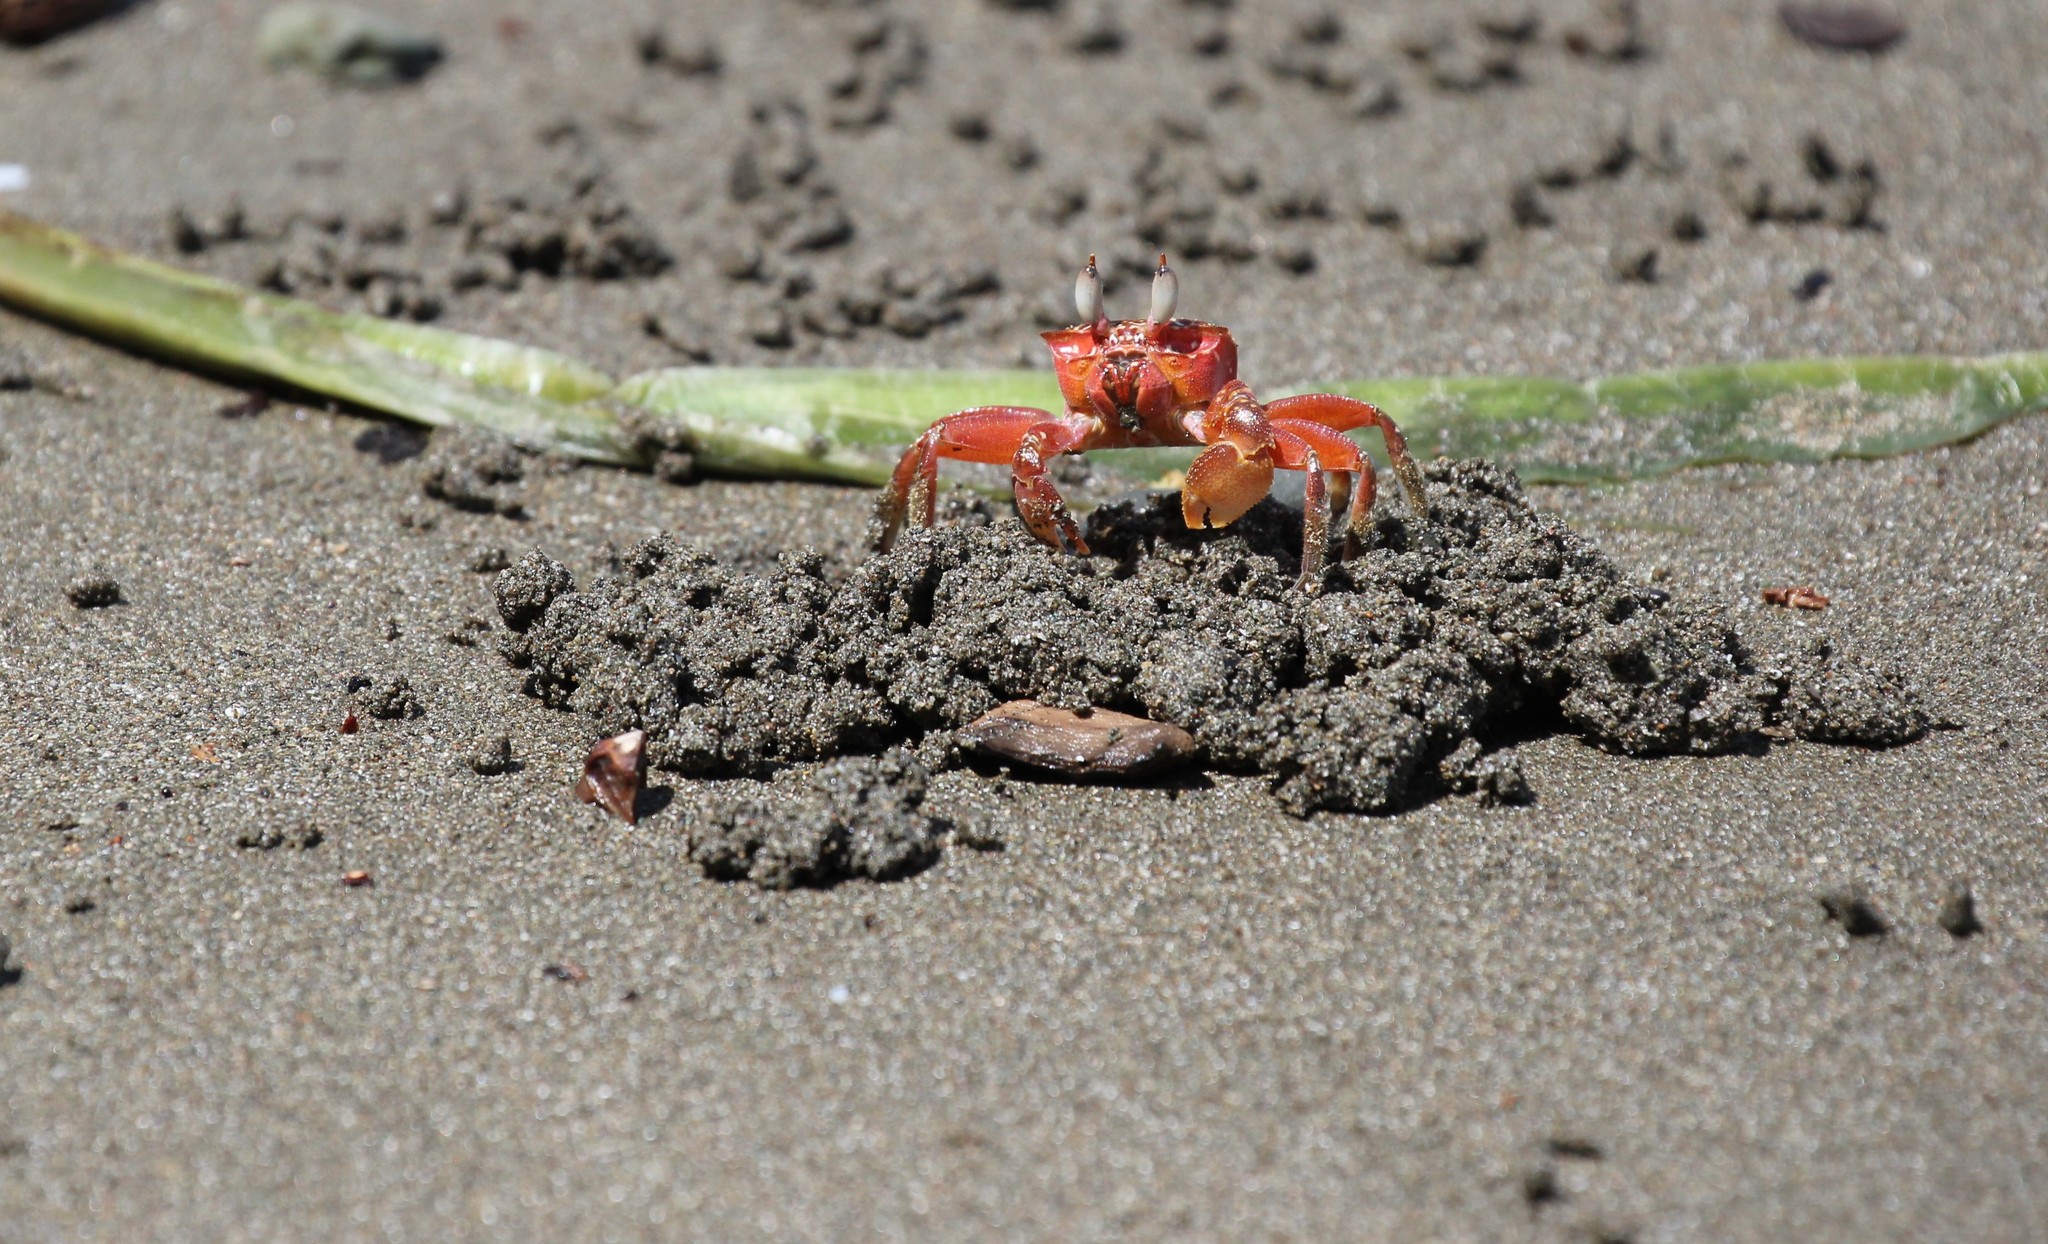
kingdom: Animalia
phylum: Arthropoda
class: Malacostraca
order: Decapoda
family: Ocypodidae
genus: Ocypode
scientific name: Ocypode gaudichaudii
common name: Pacific ghost crab
